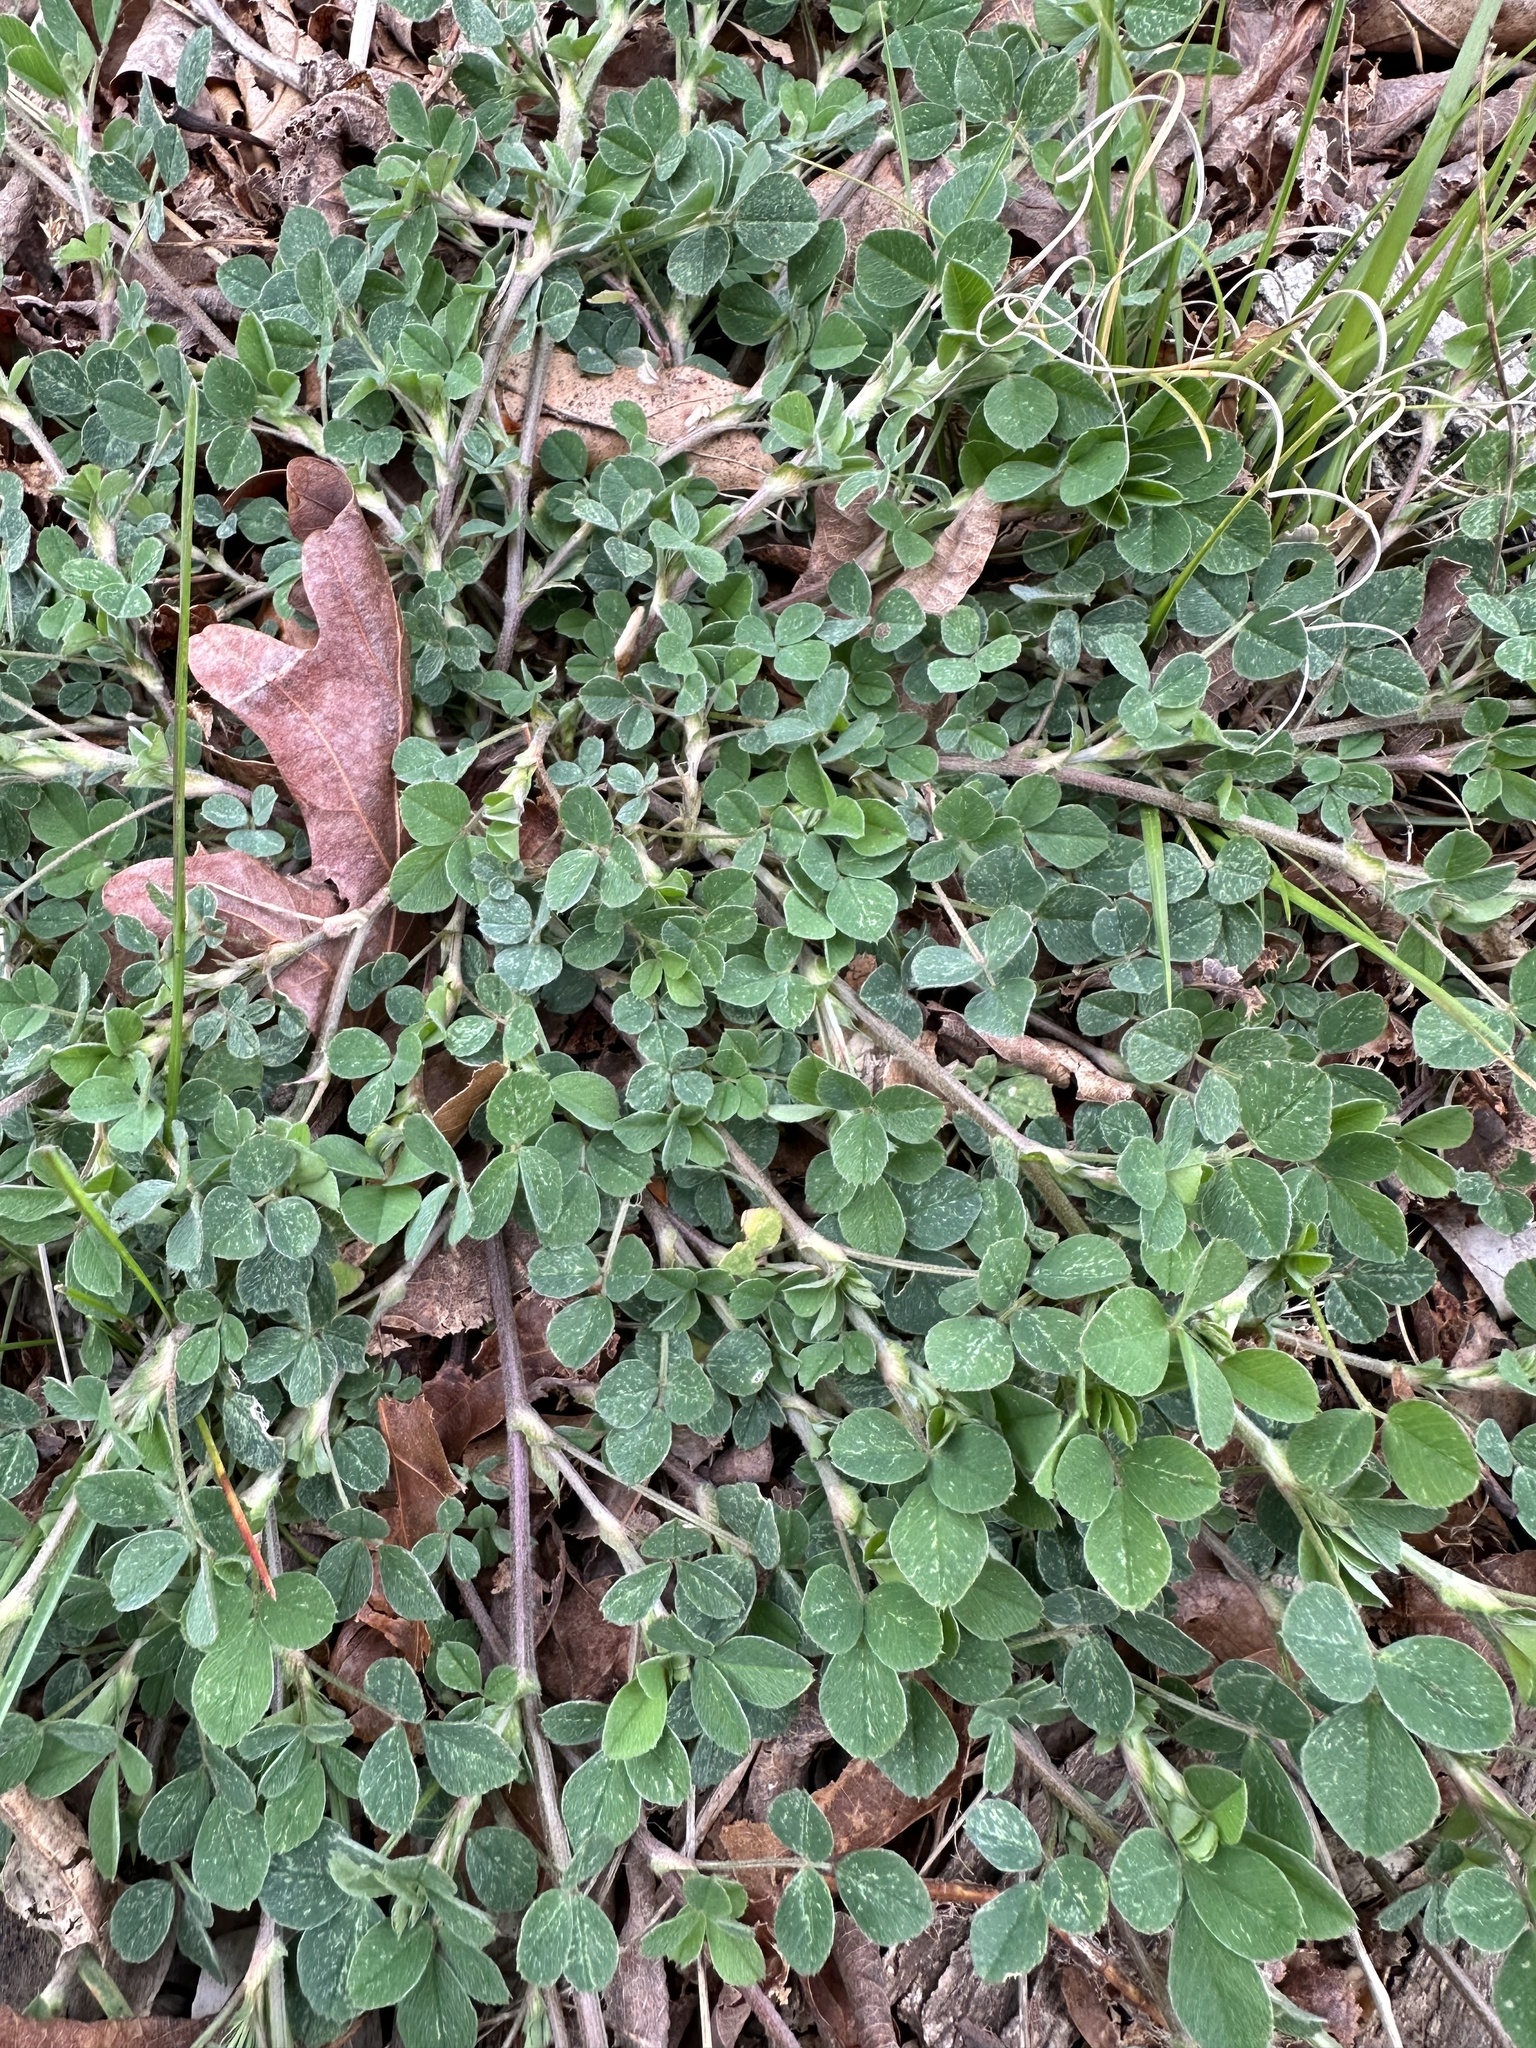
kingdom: Plantae
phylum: Tracheophyta
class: Magnoliopsida
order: Fabales
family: Fabaceae
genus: Medicago
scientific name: Medicago lupulina
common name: Black medick
